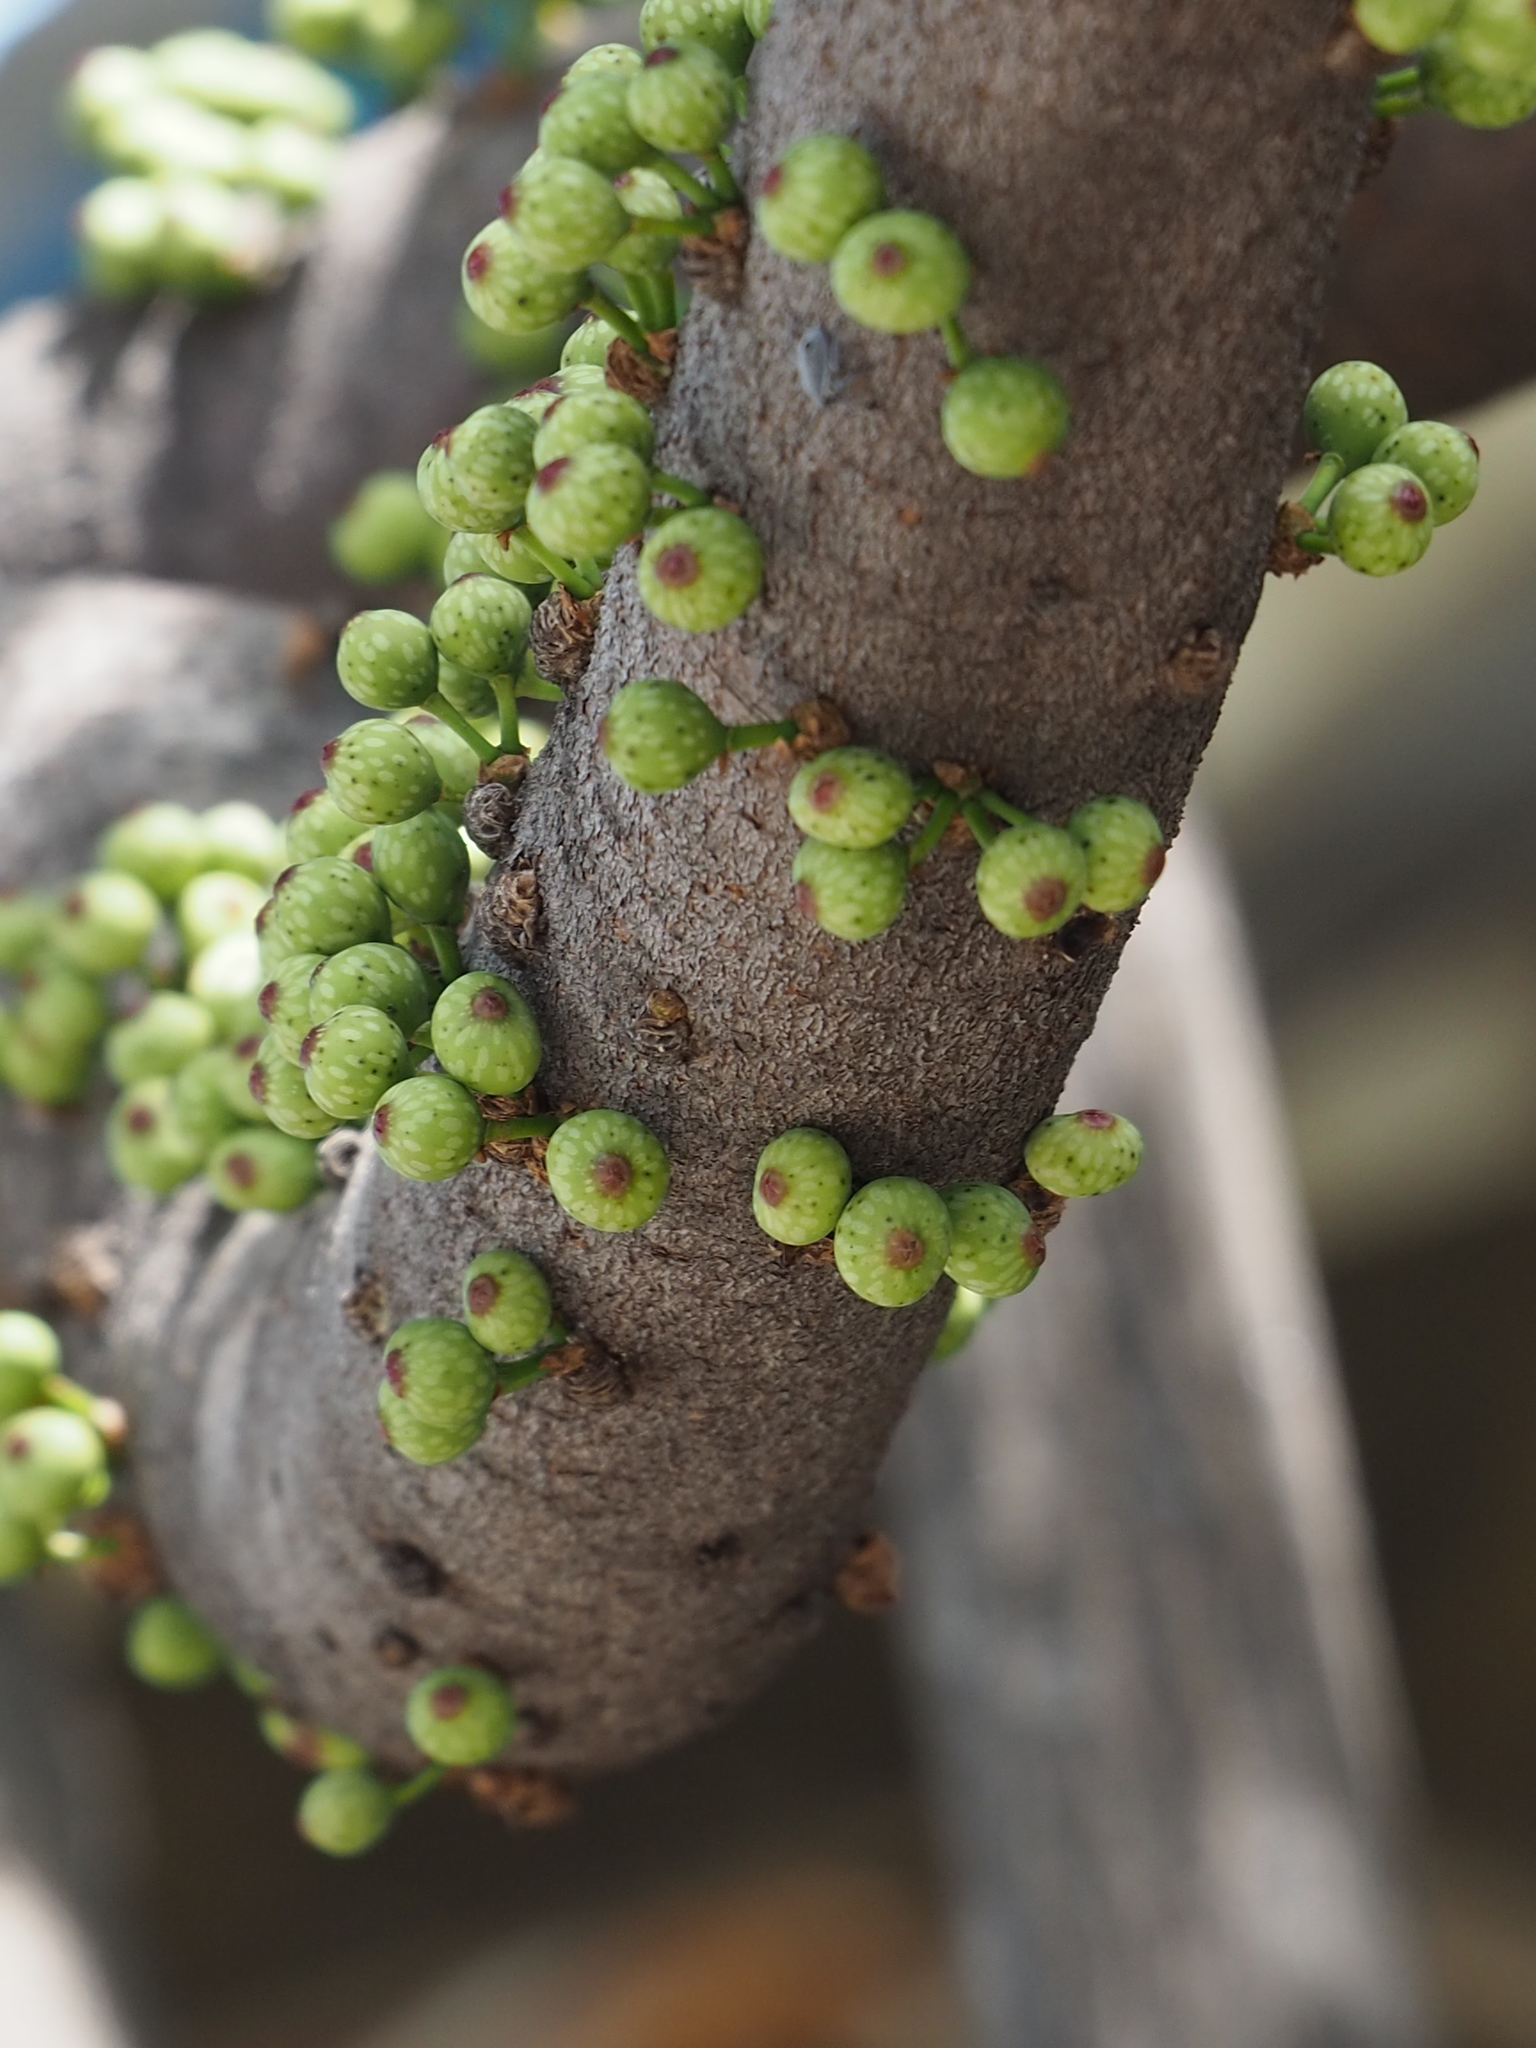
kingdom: Plantae
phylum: Tracheophyta
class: Magnoliopsida
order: Rosales
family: Moraceae
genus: Ficus
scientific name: Ficus subpisocarpa
